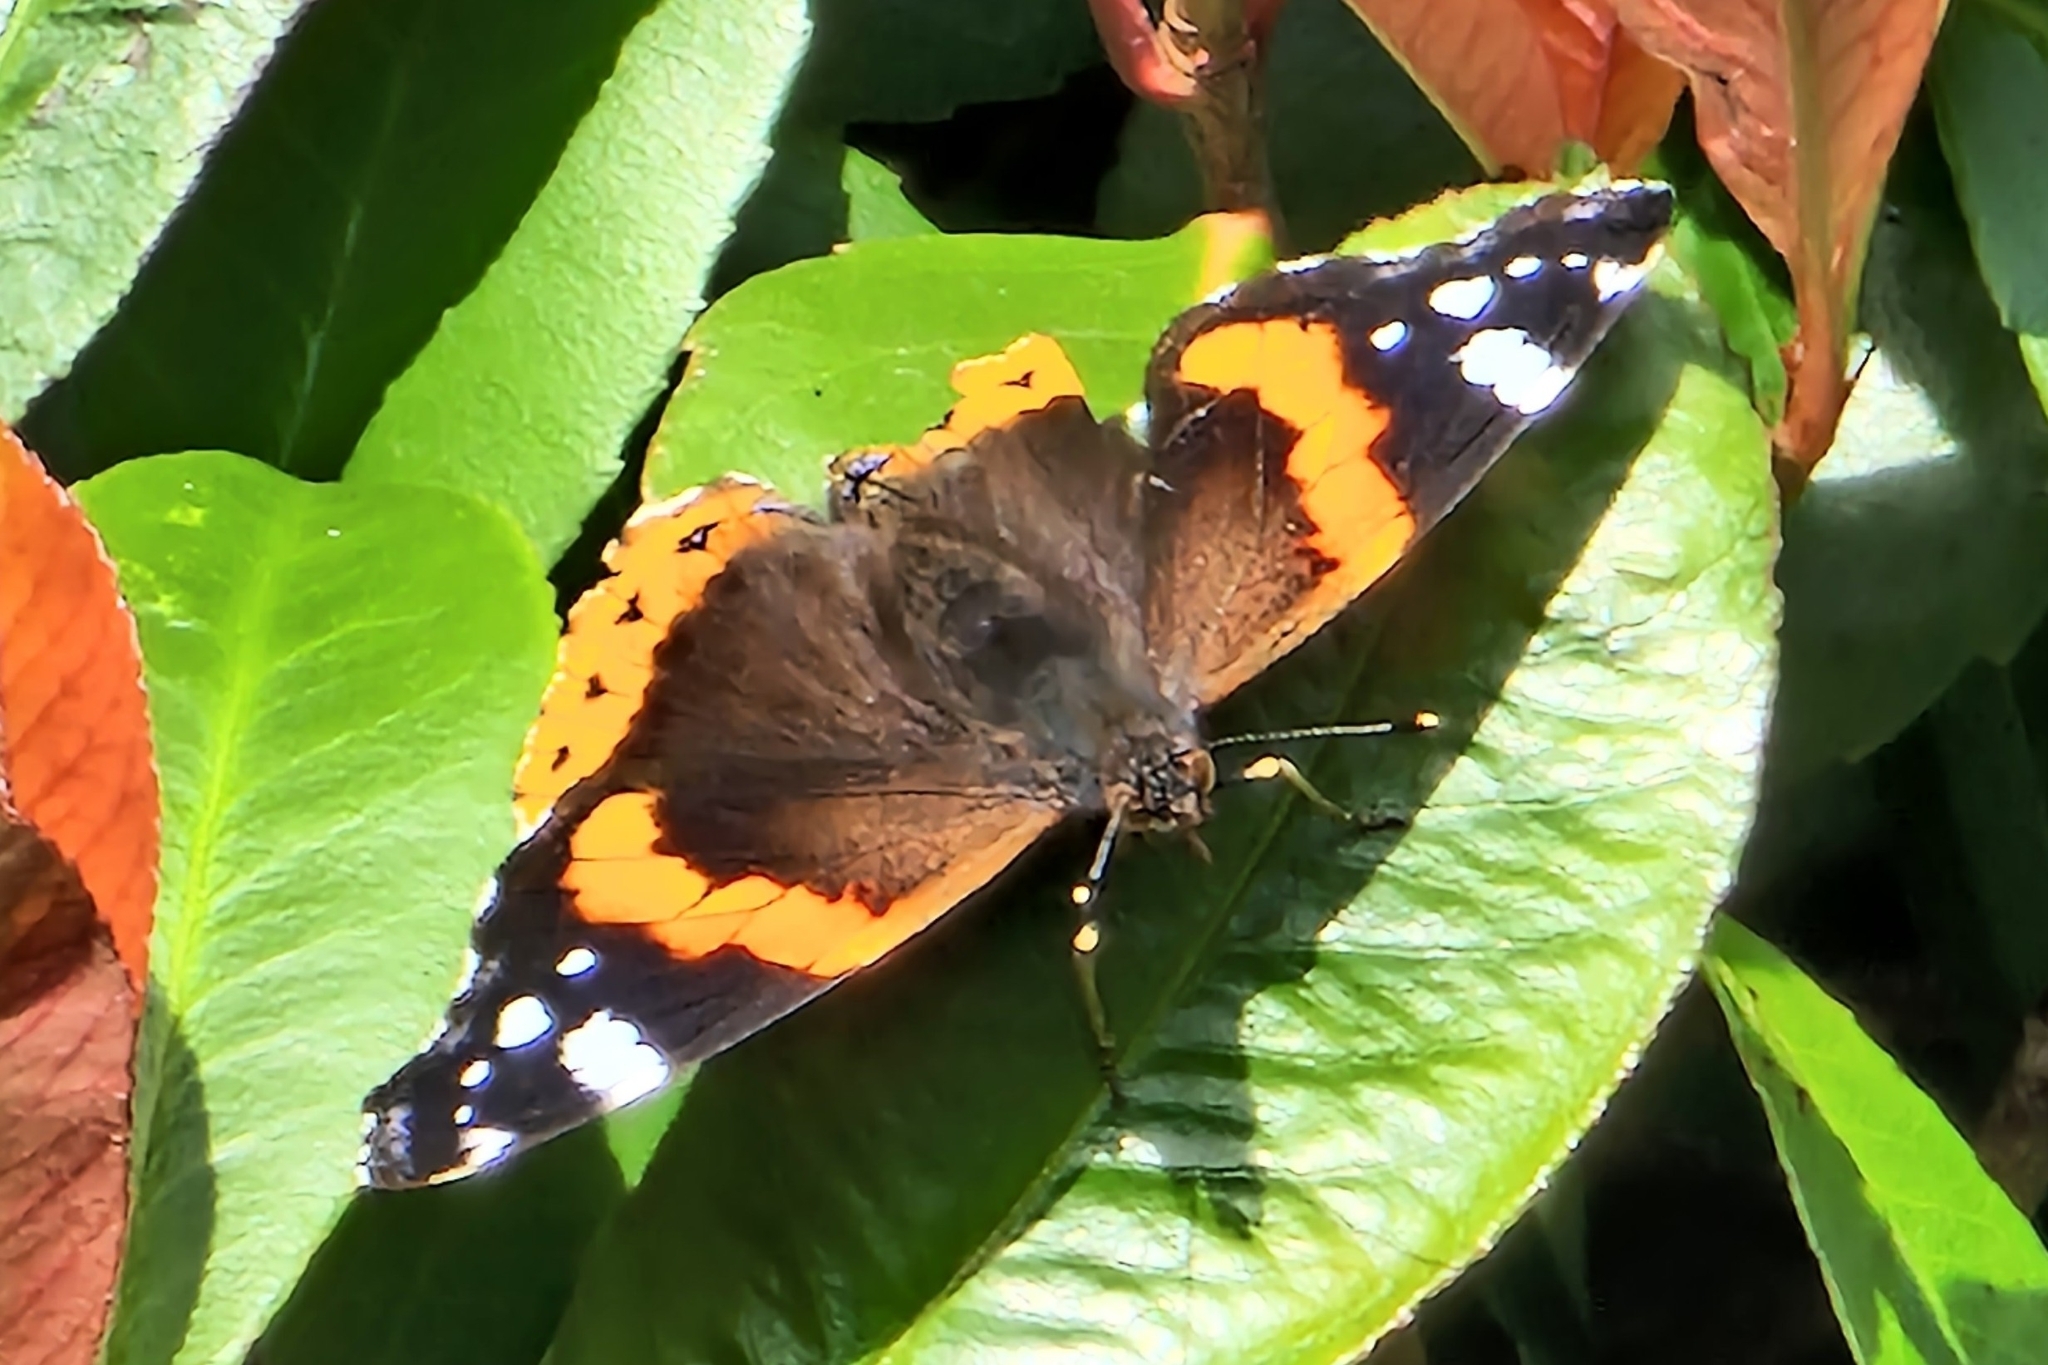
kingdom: Animalia
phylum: Arthropoda
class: Insecta
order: Lepidoptera
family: Nymphalidae
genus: Vanessa
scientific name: Vanessa atalanta
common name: Red admiral
